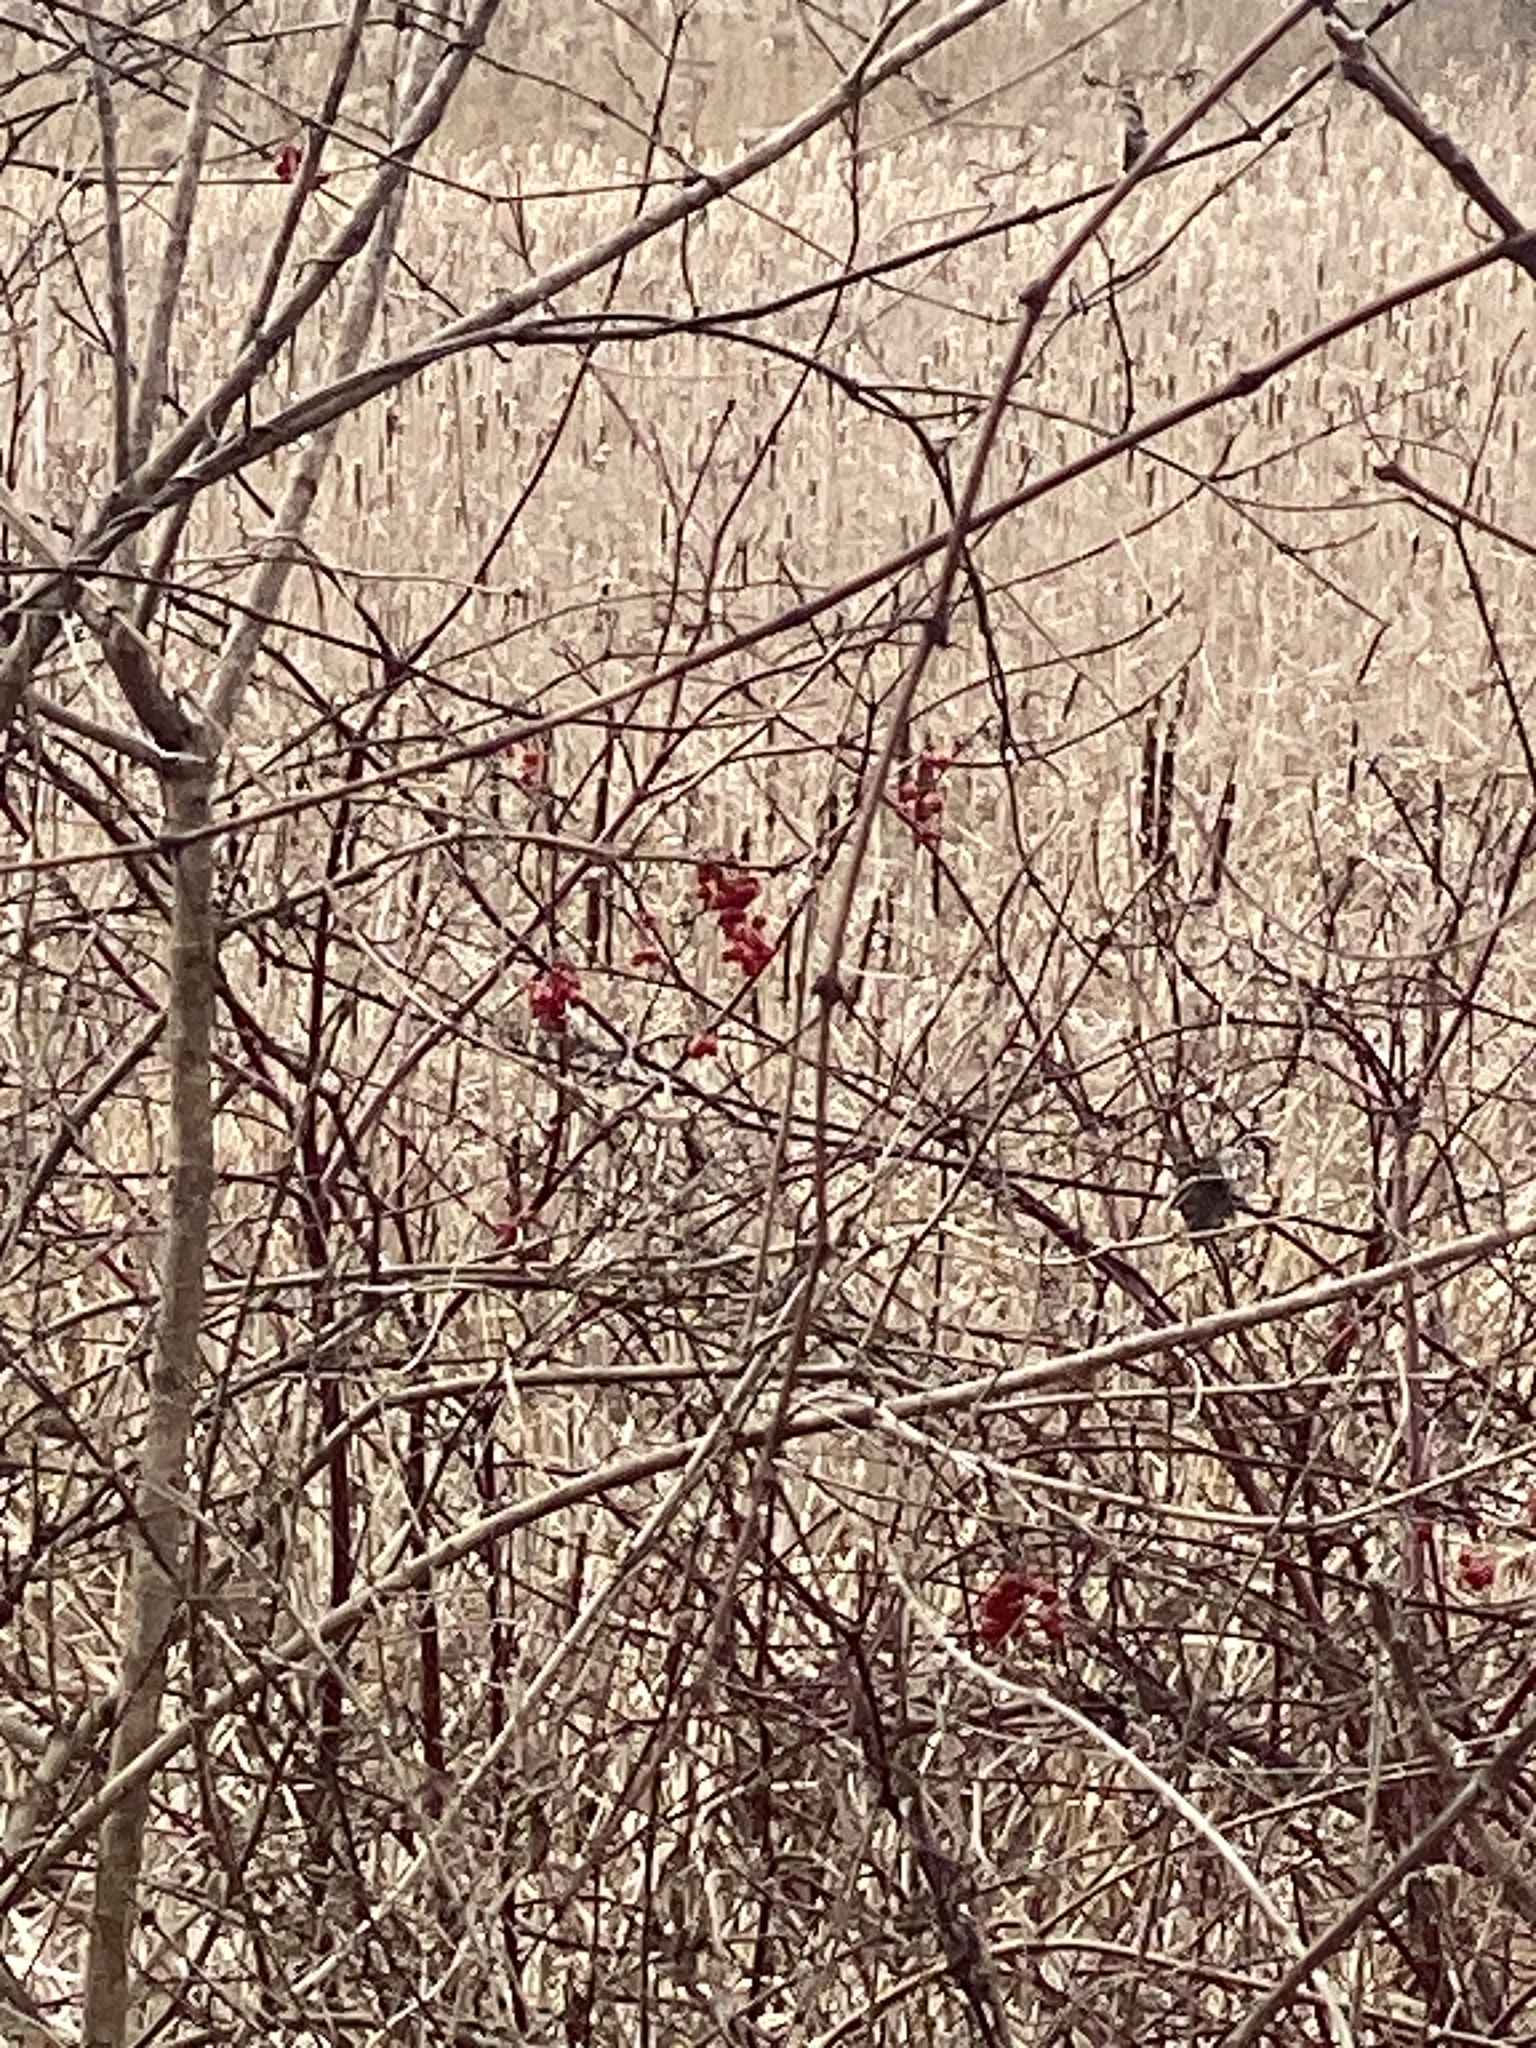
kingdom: Plantae
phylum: Tracheophyta
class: Magnoliopsida
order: Dipsacales
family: Viburnaceae
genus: Viburnum
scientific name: Viburnum opulus
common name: Guelder-rose
